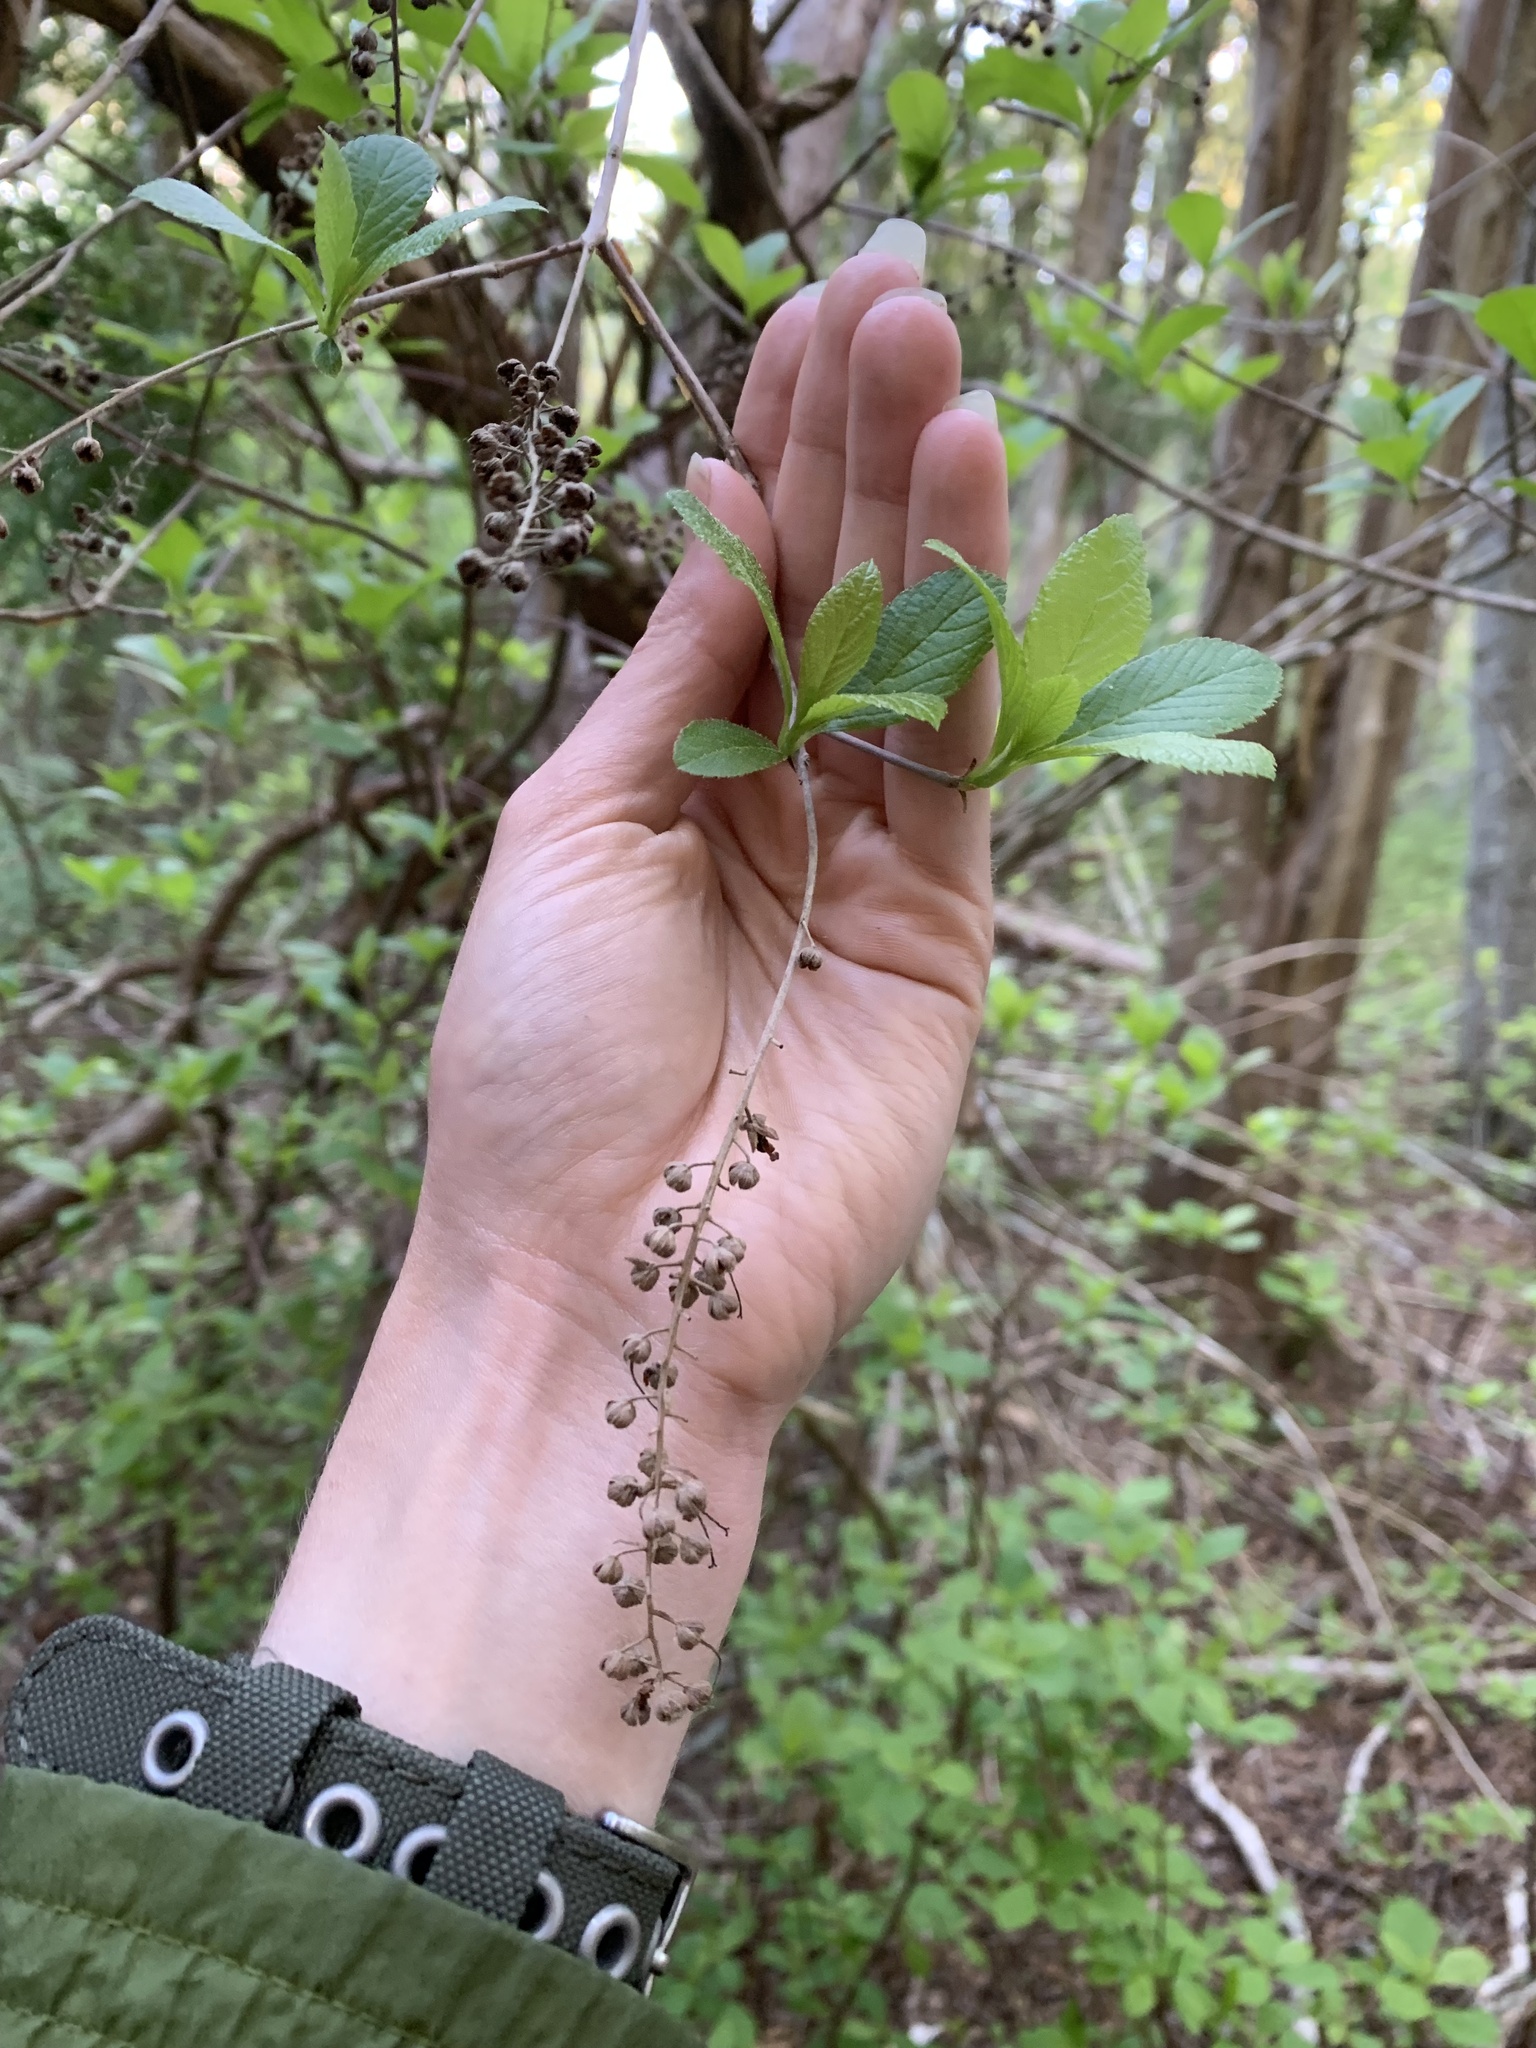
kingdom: Plantae
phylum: Tracheophyta
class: Magnoliopsida
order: Ericales
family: Clethraceae
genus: Clethra
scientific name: Clethra alnifolia
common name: Sweet pepperbush
